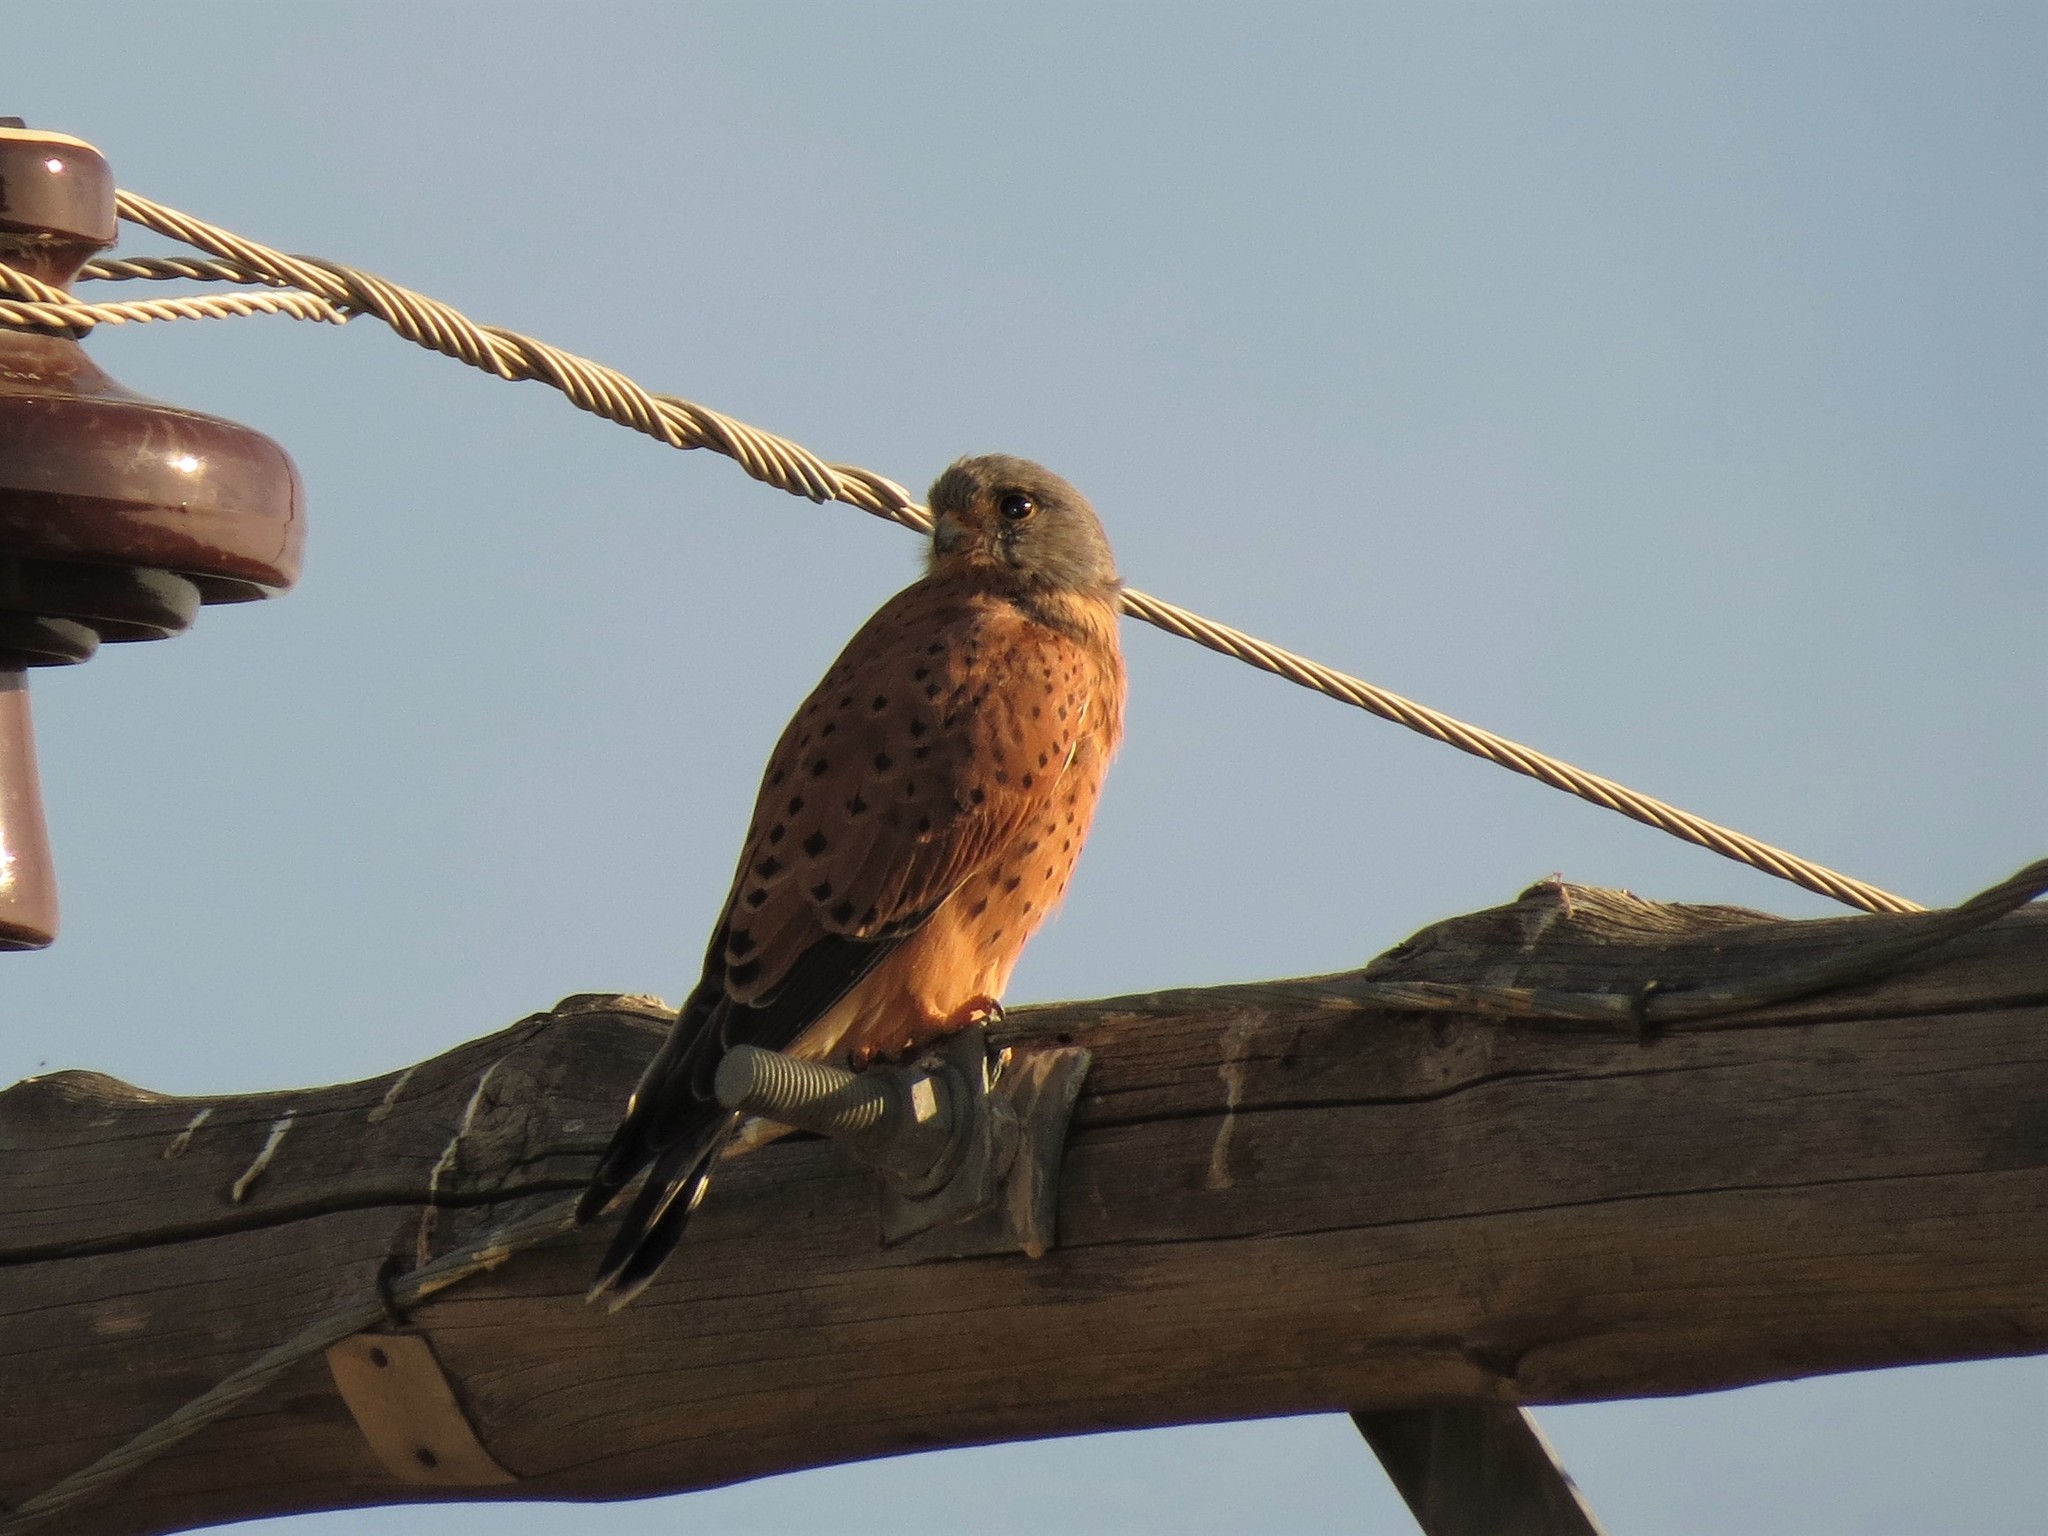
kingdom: Animalia
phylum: Chordata
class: Aves
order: Falconiformes
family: Falconidae
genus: Falco
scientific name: Falco rupicolus
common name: Rock kestrel
